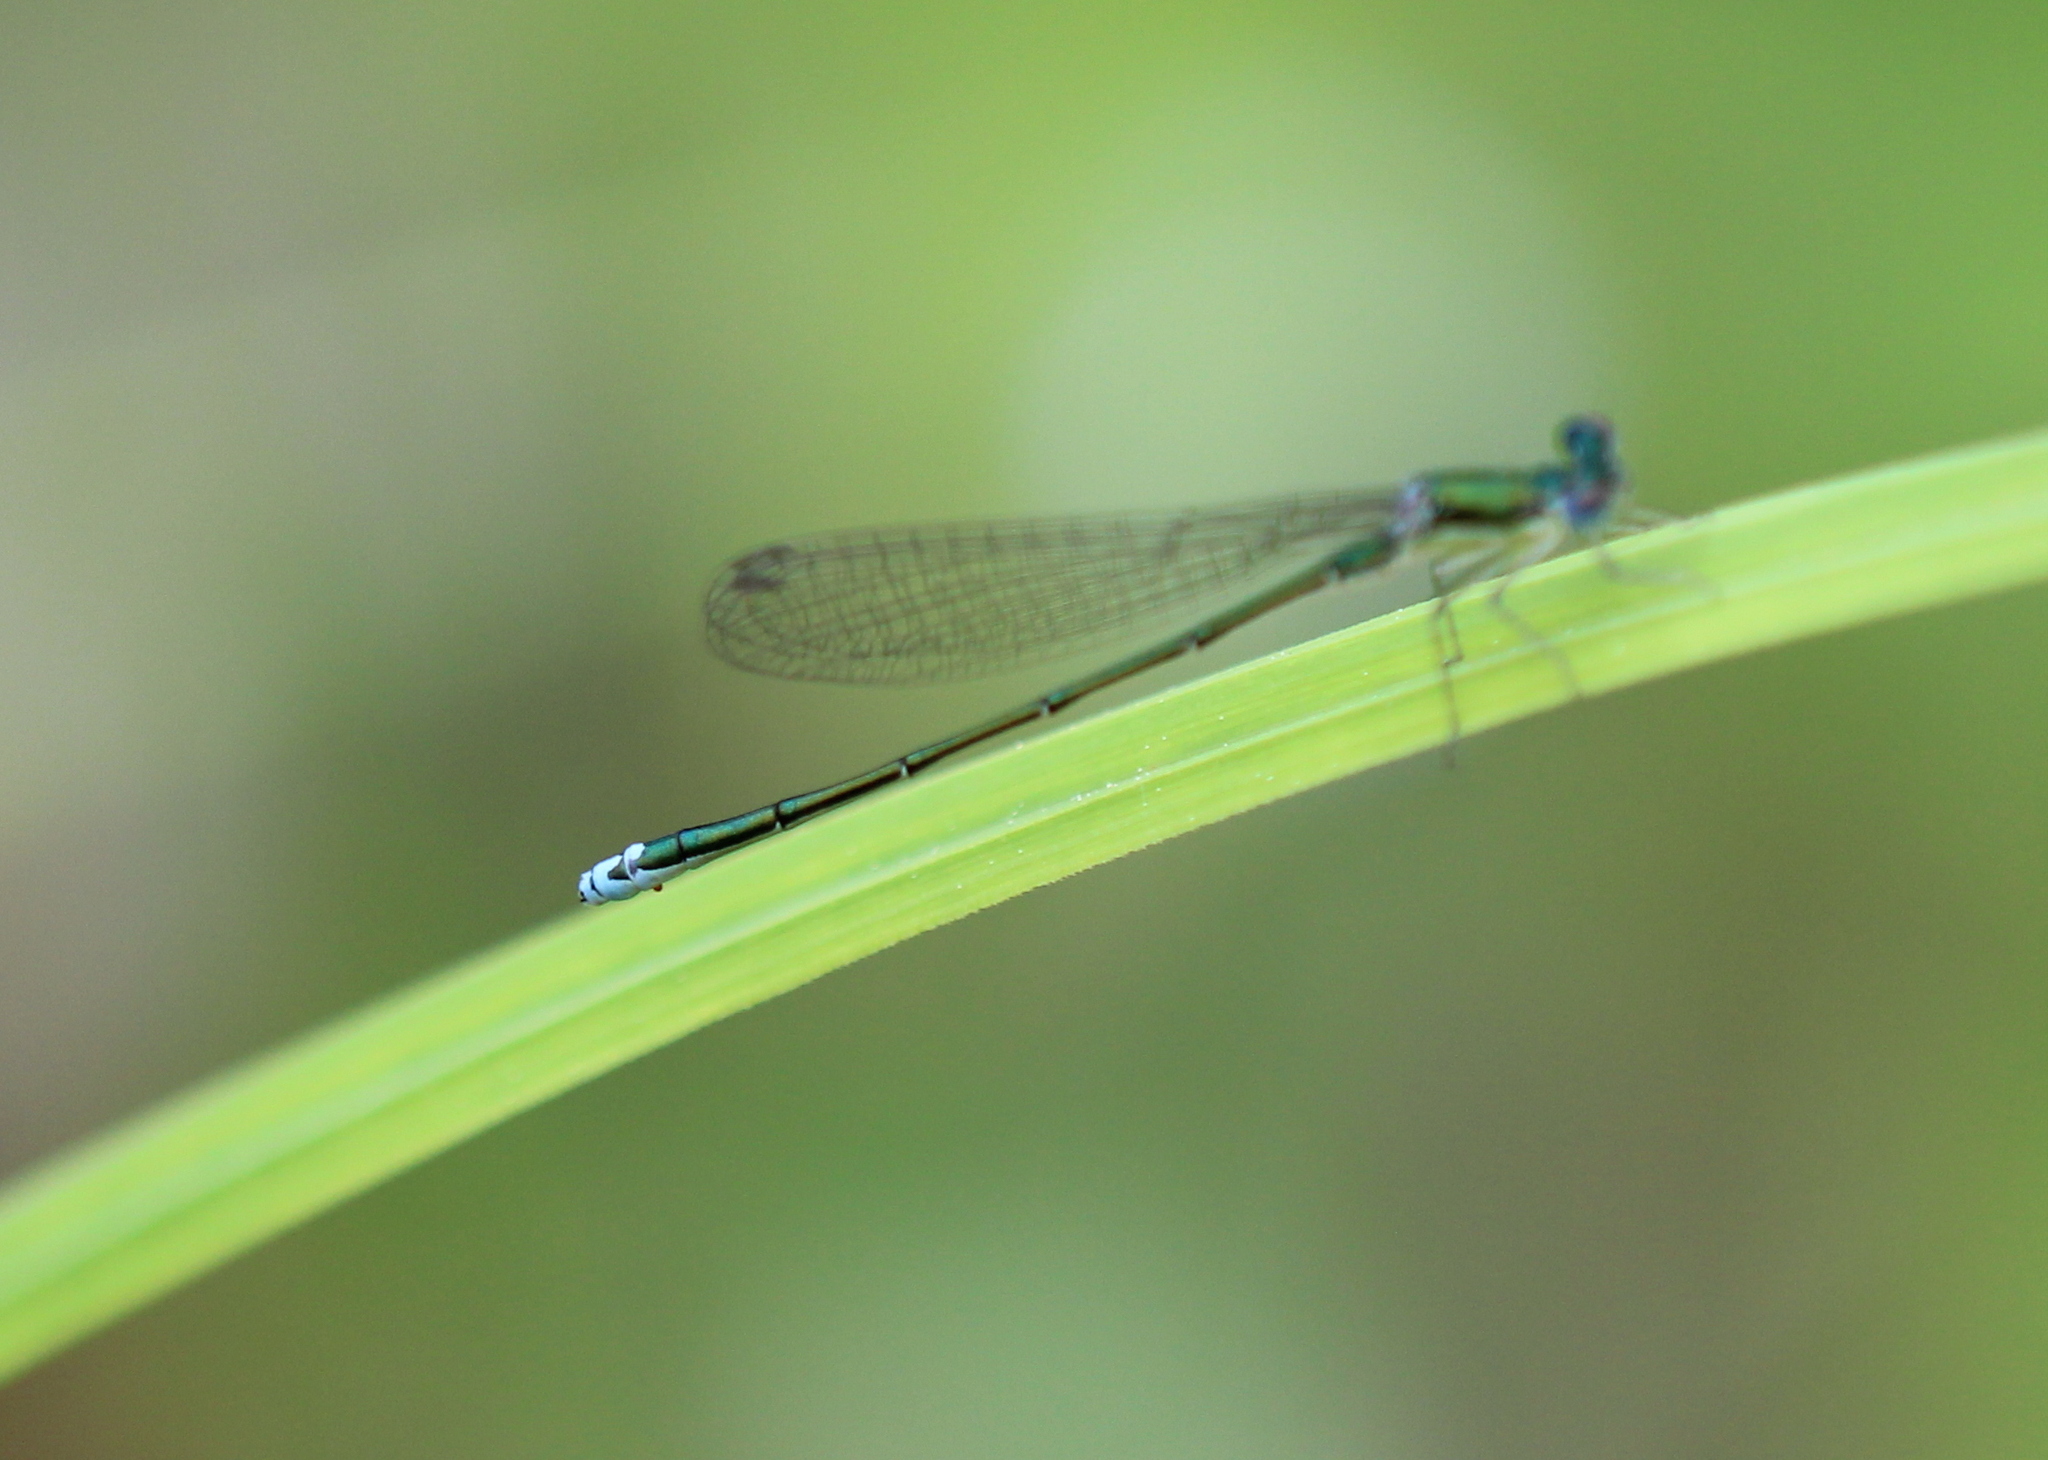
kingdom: Animalia
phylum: Arthropoda
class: Insecta
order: Odonata
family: Coenagrionidae
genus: Nehalennia
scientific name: Nehalennia irene
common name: Sedge sprite
